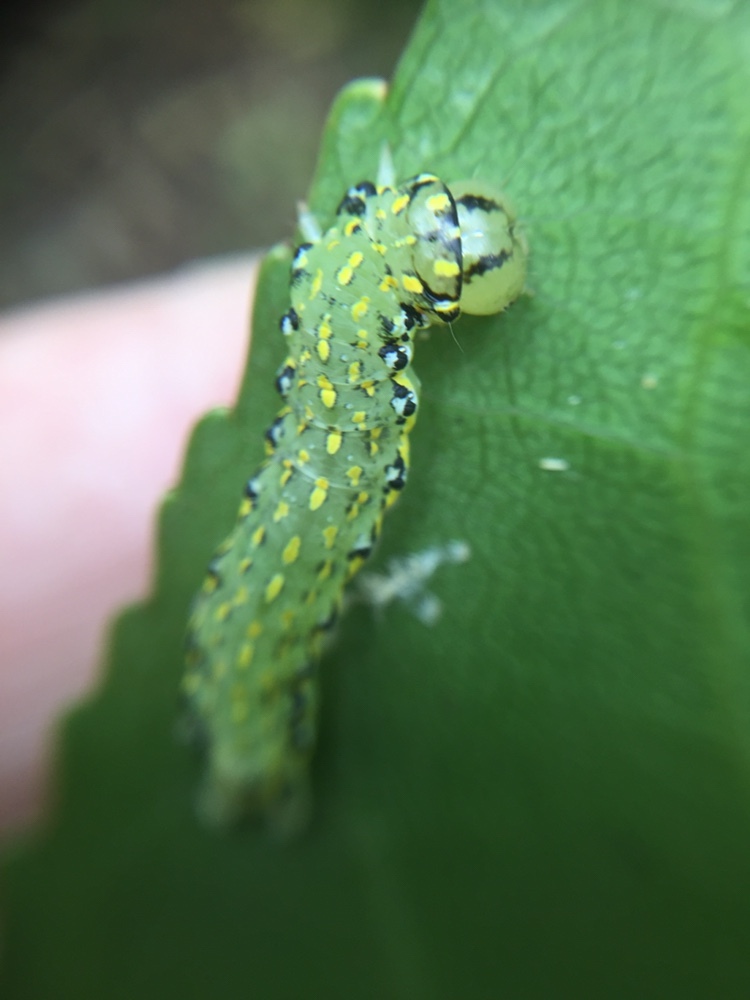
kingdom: Animalia
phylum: Arthropoda
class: Insecta
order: Lepidoptera
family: Noctuidae
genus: Austramathes
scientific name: Austramathes purpurea
